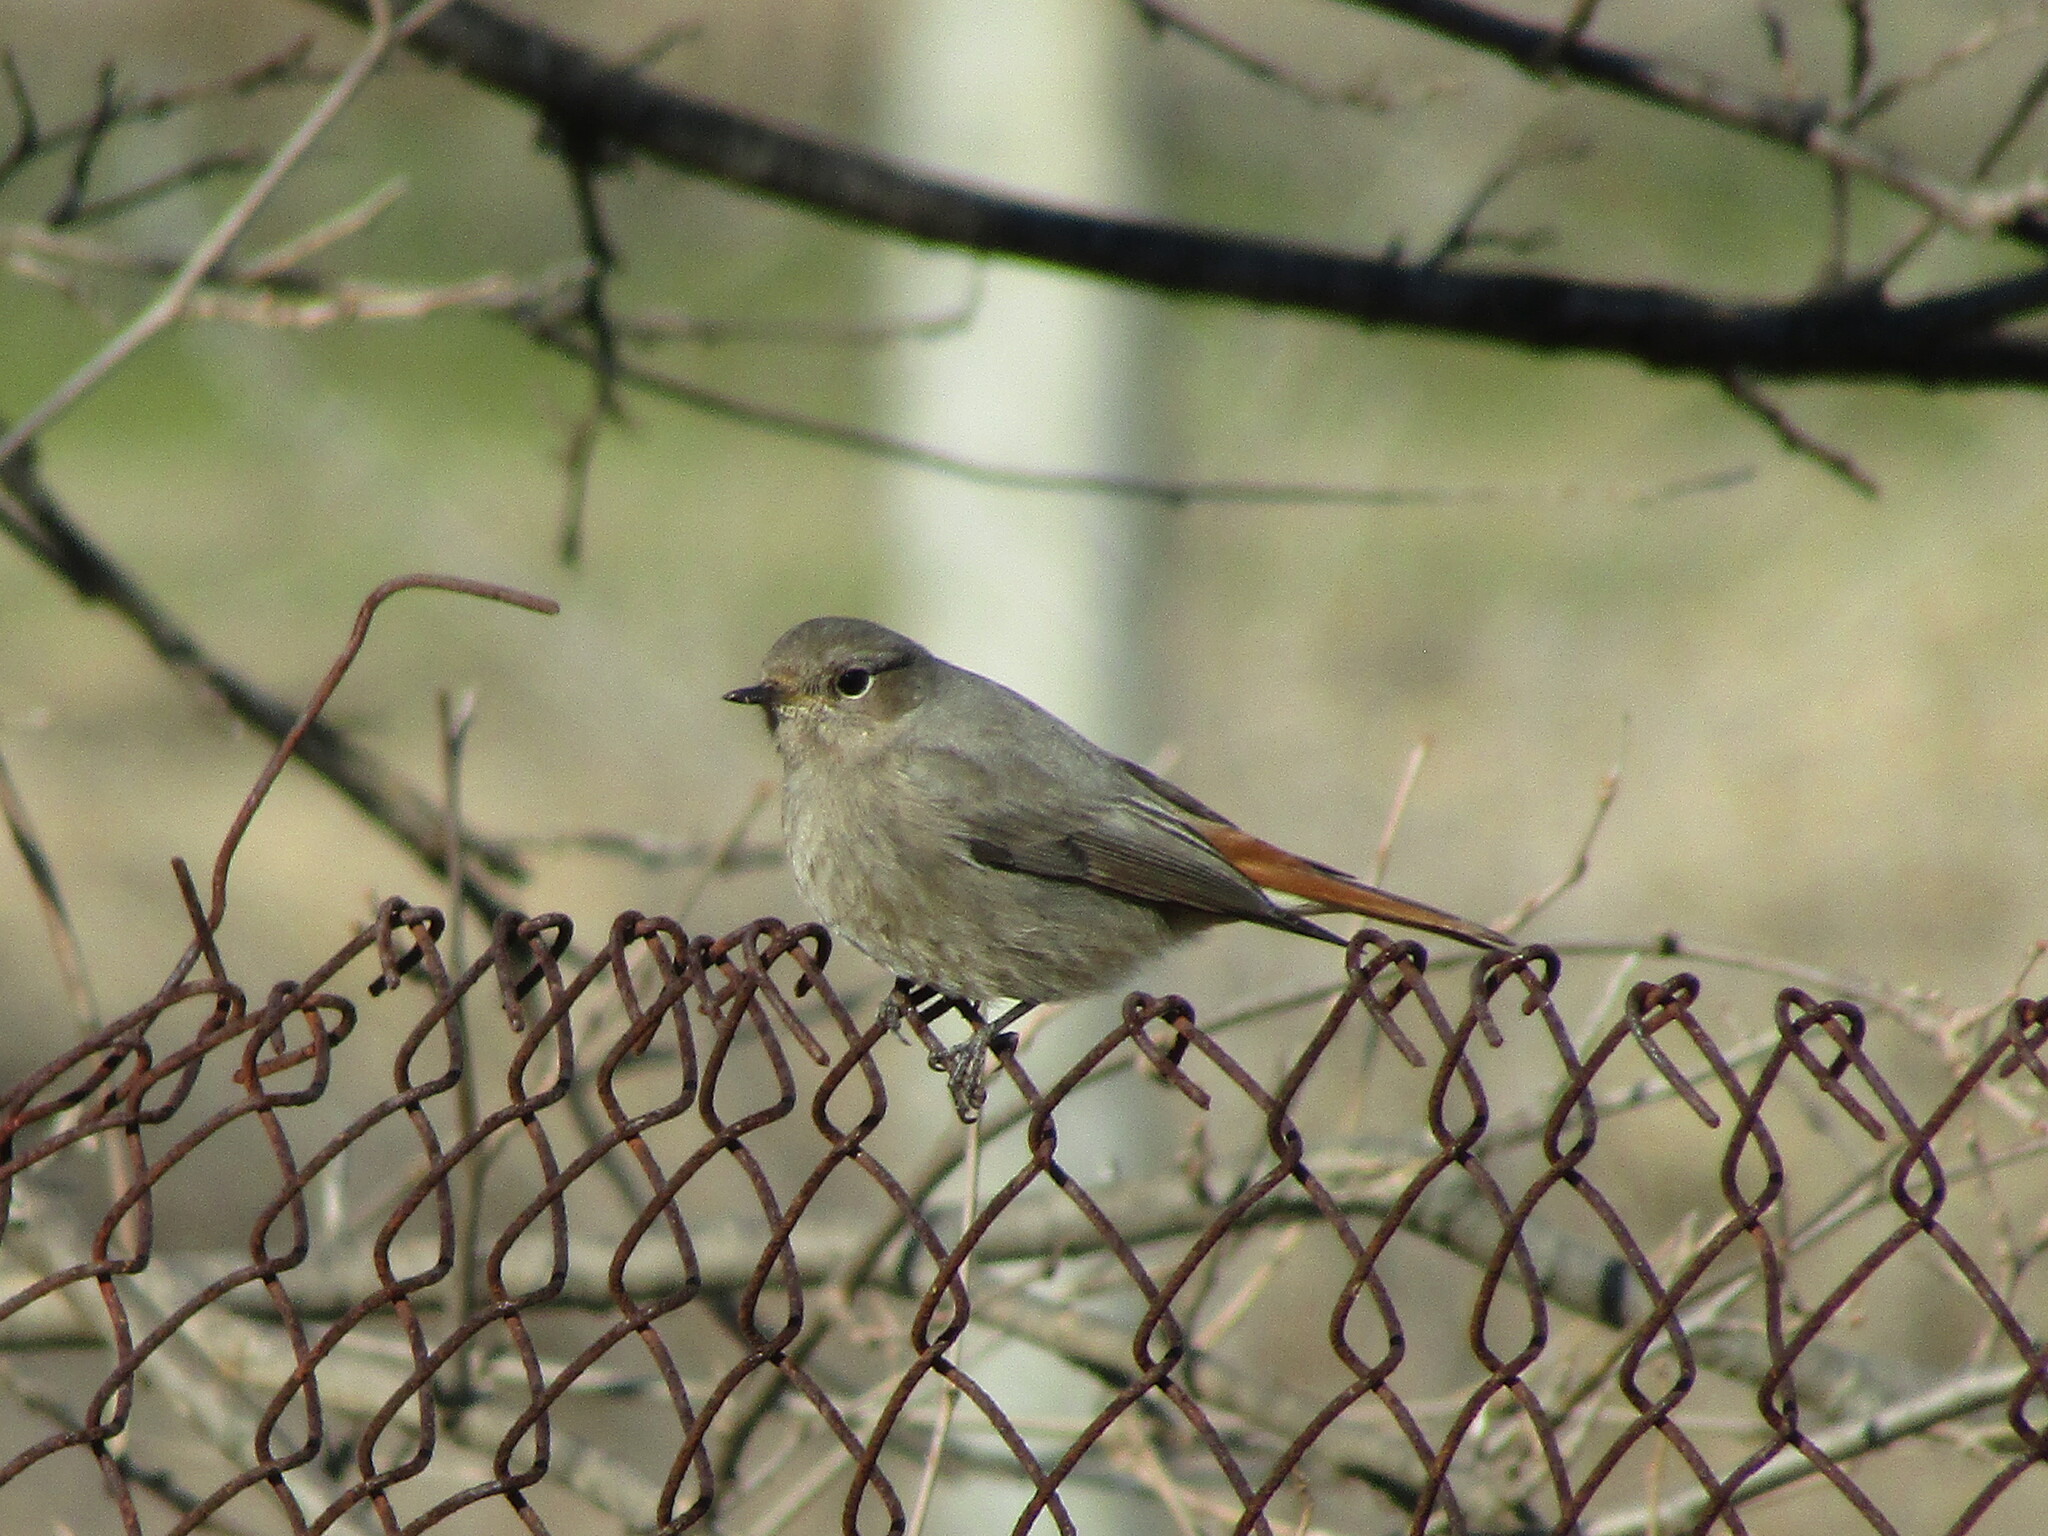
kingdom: Animalia
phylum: Chordata
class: Aves
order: Passeriformes
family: Muscicapidae
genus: Phoenicurus
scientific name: Phoenicurus ochruros
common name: Black redstart
